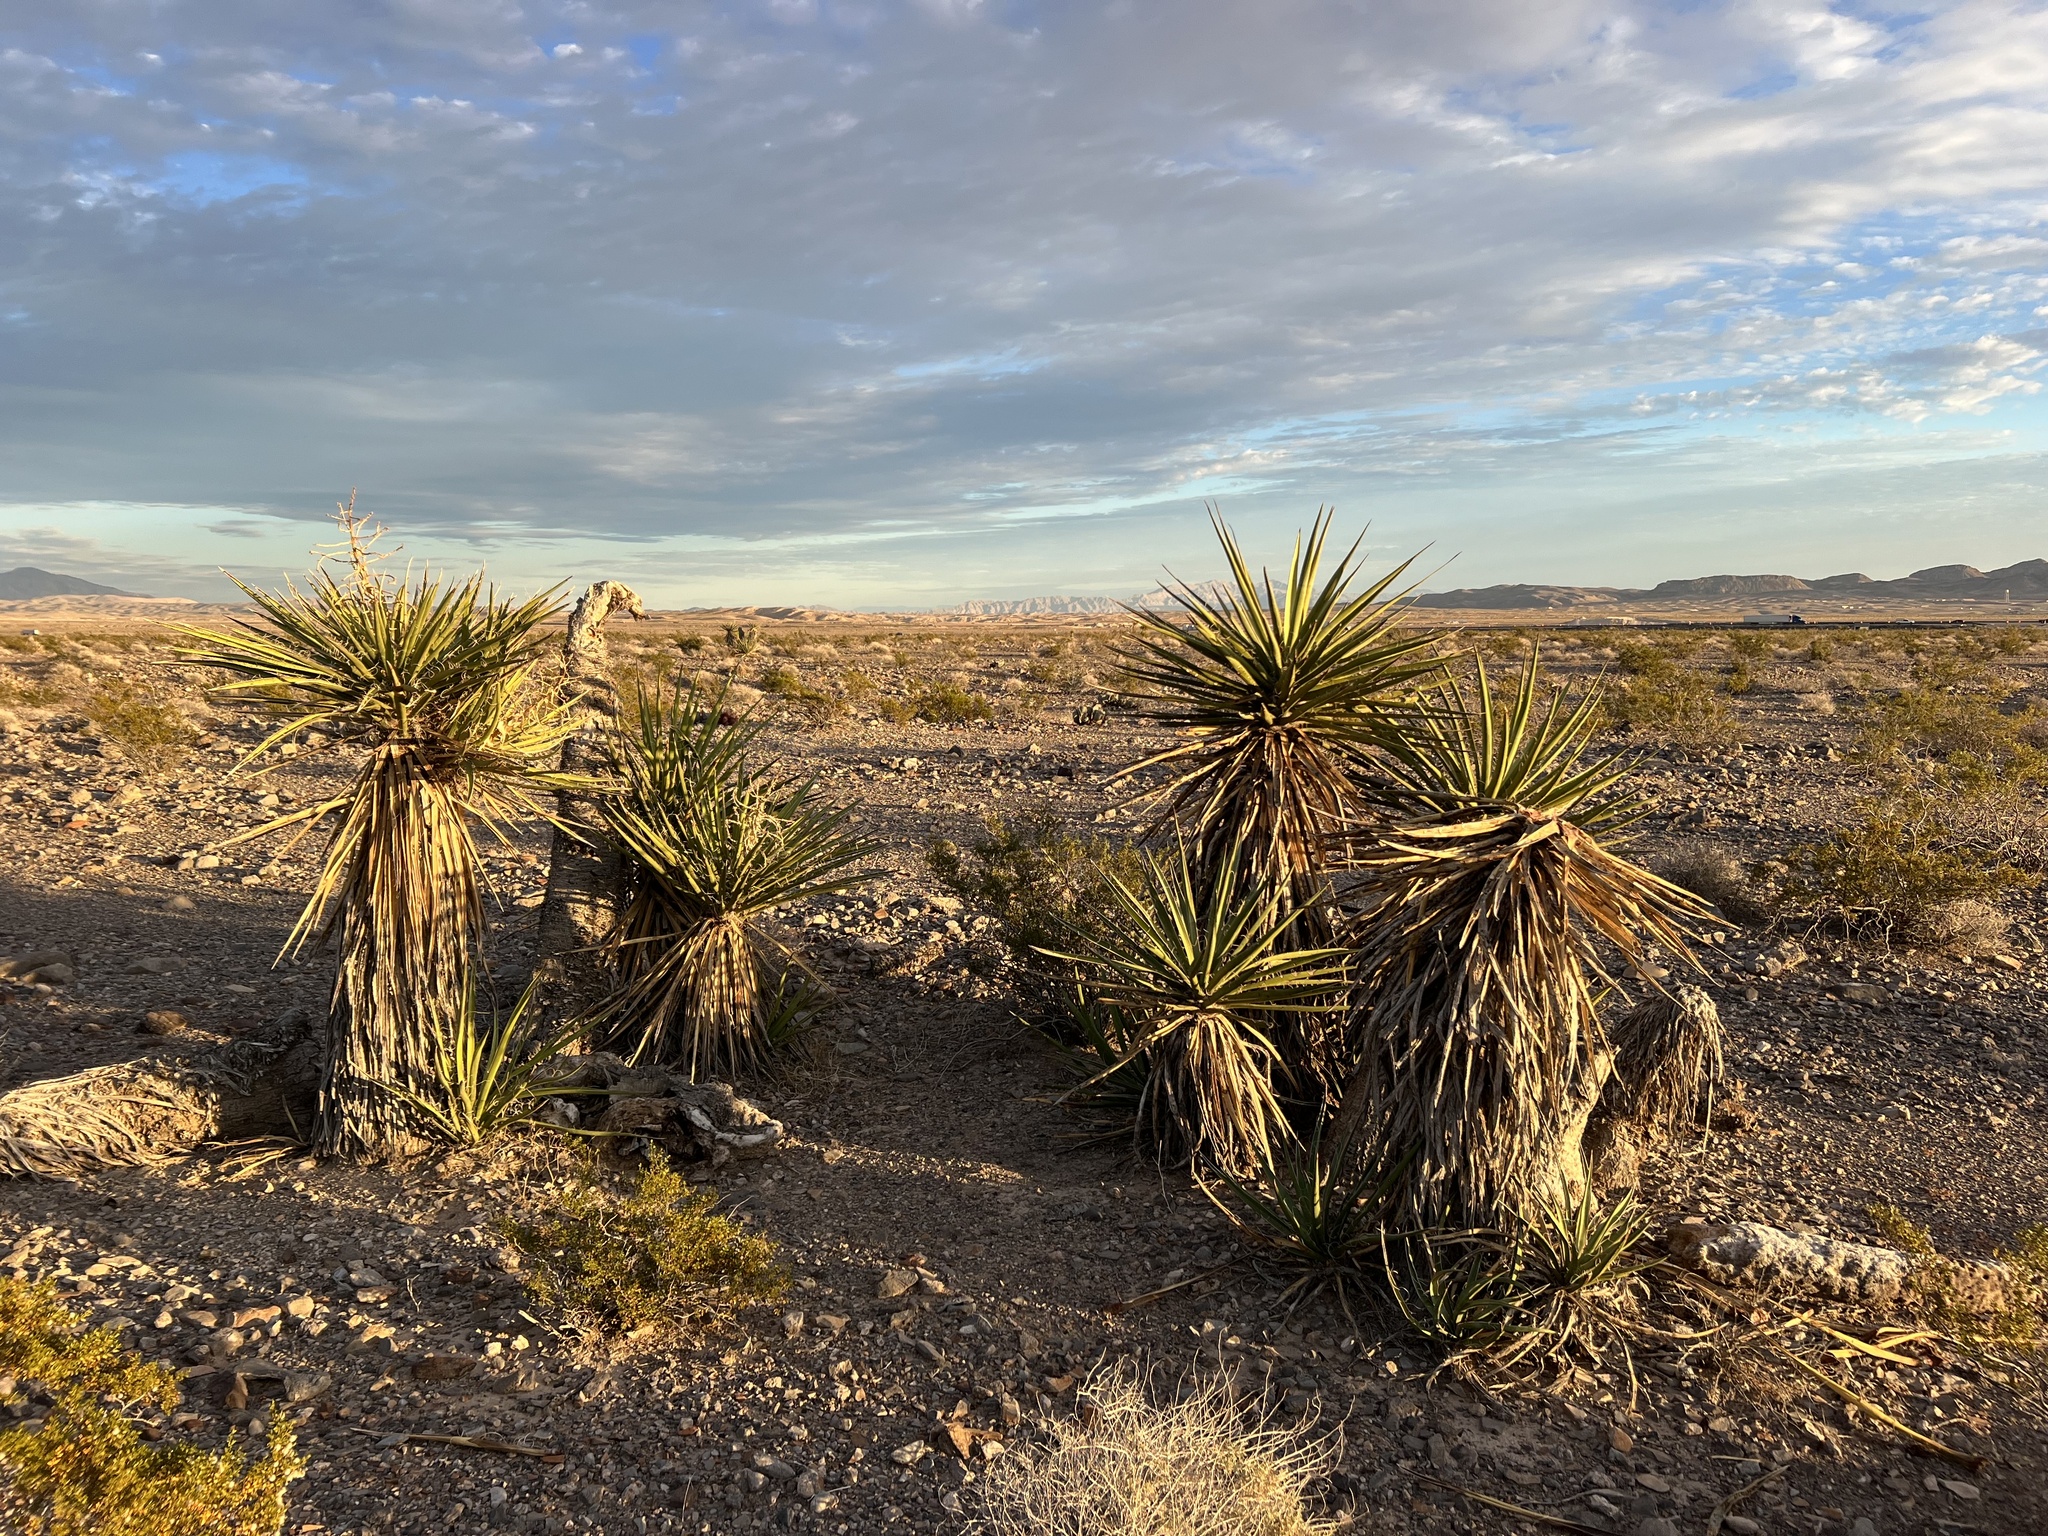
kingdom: Plantae
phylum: Tracheophyta
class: Liliopsida
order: Asparagales
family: Asparagaceae
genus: Yucca
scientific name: Yucca schidigera
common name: Mojave yucca
